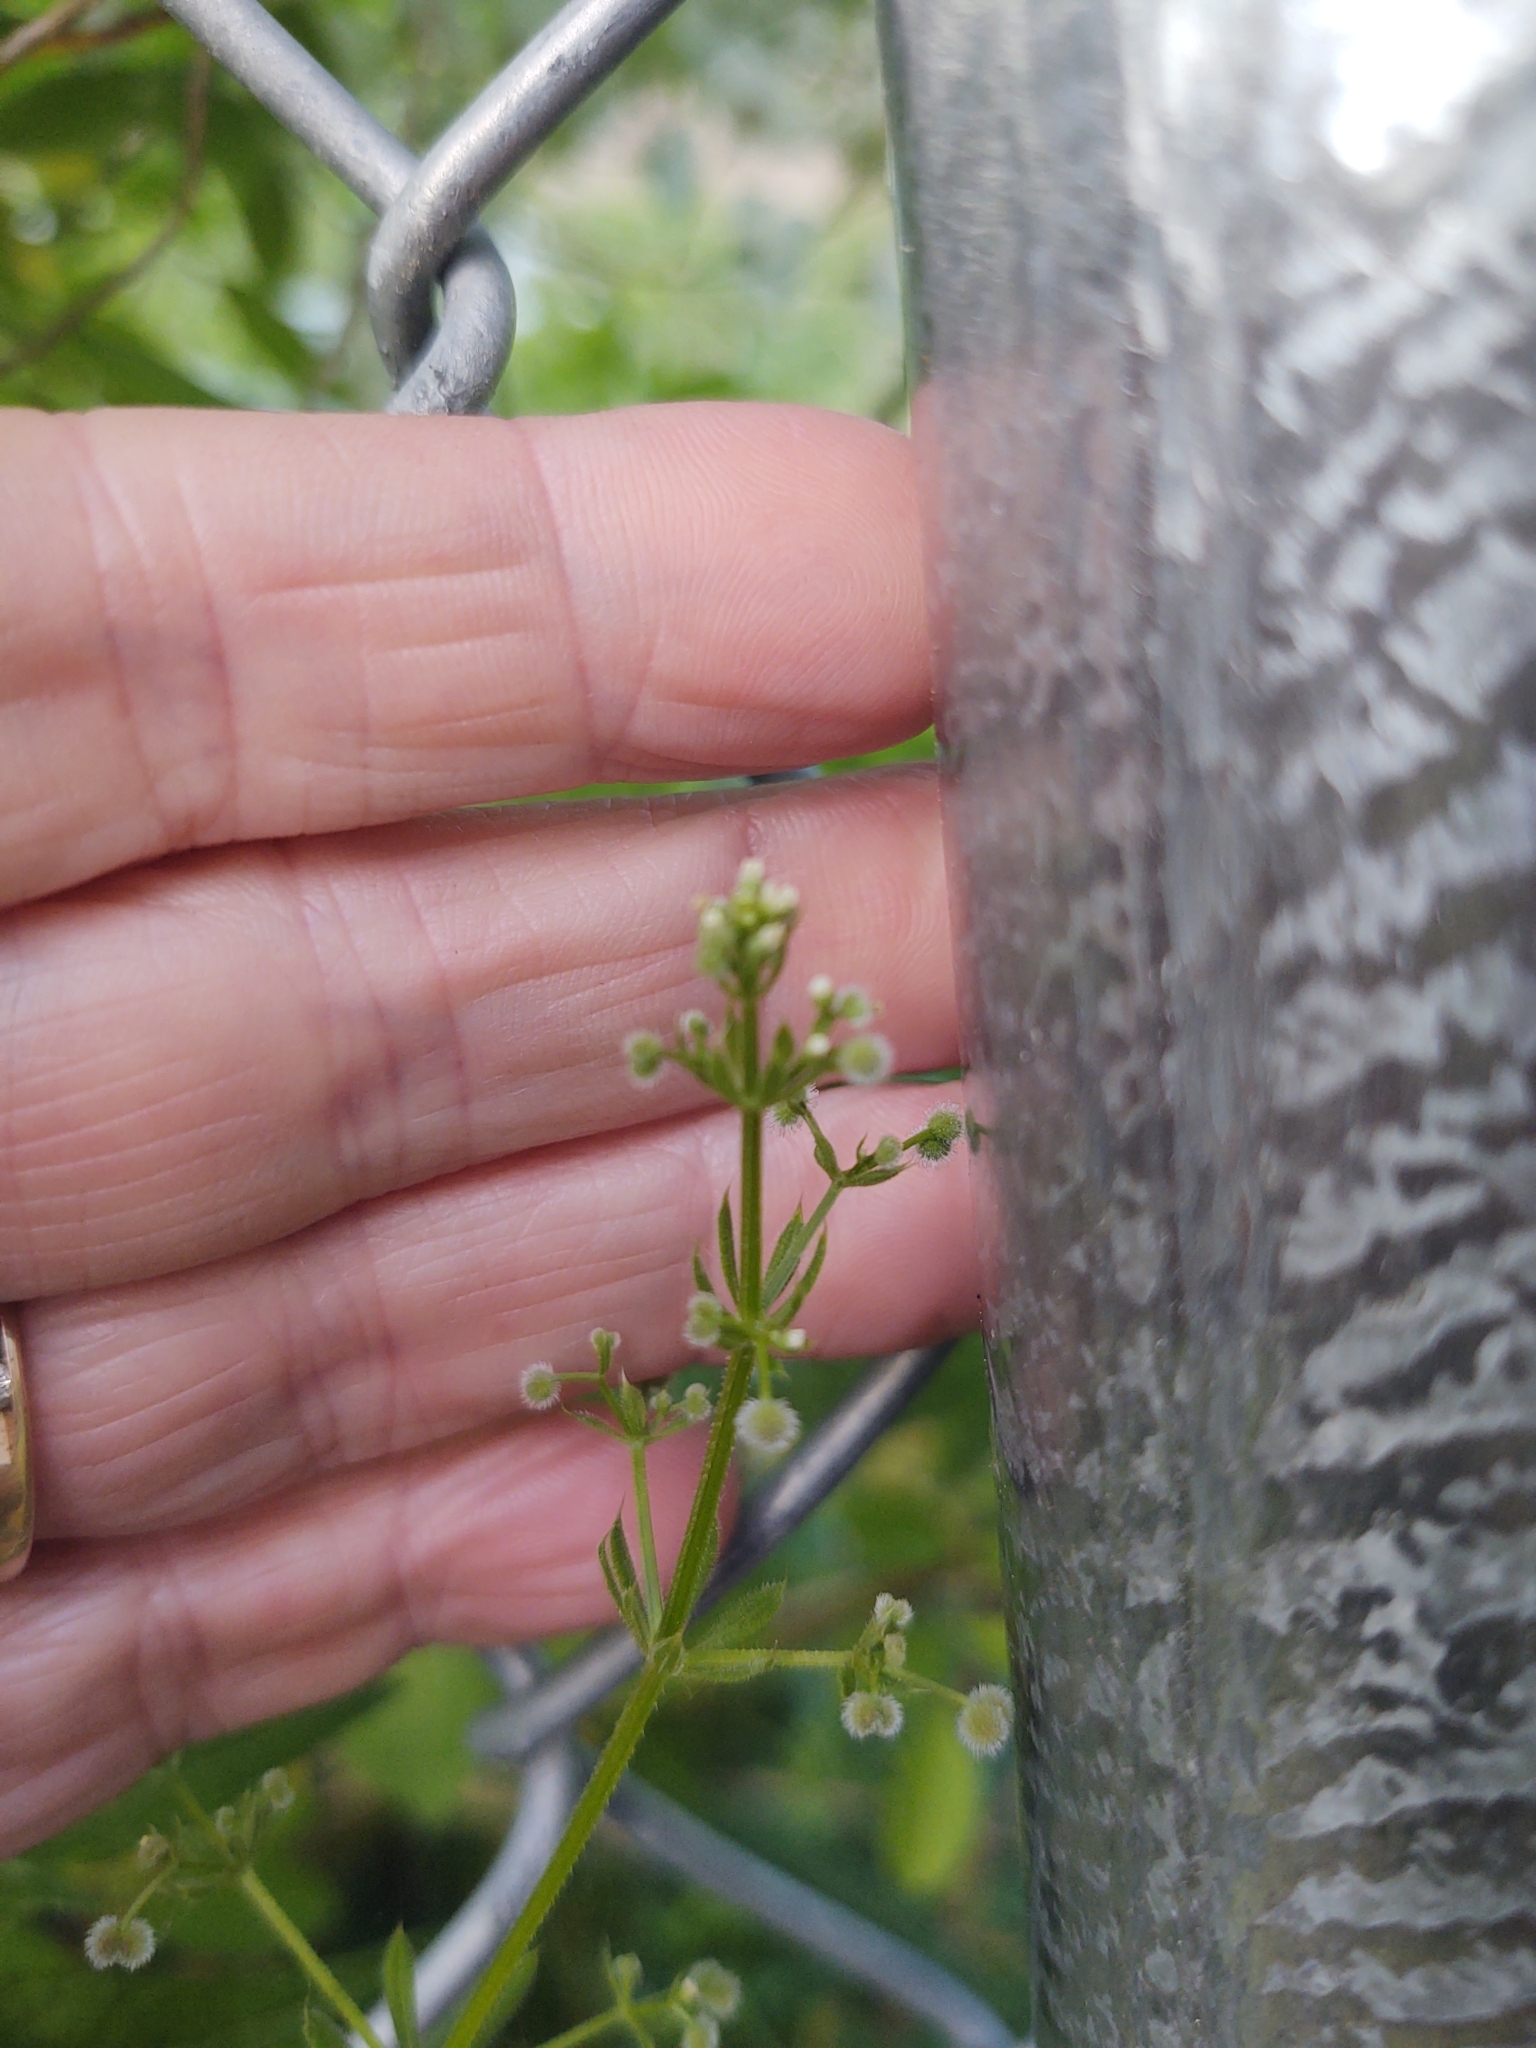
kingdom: Plantae
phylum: Tracheophyta
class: Magnoliopsida
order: Gentianales
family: Rubiaceae
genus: Galium
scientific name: Galium aparine
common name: Cleavers
